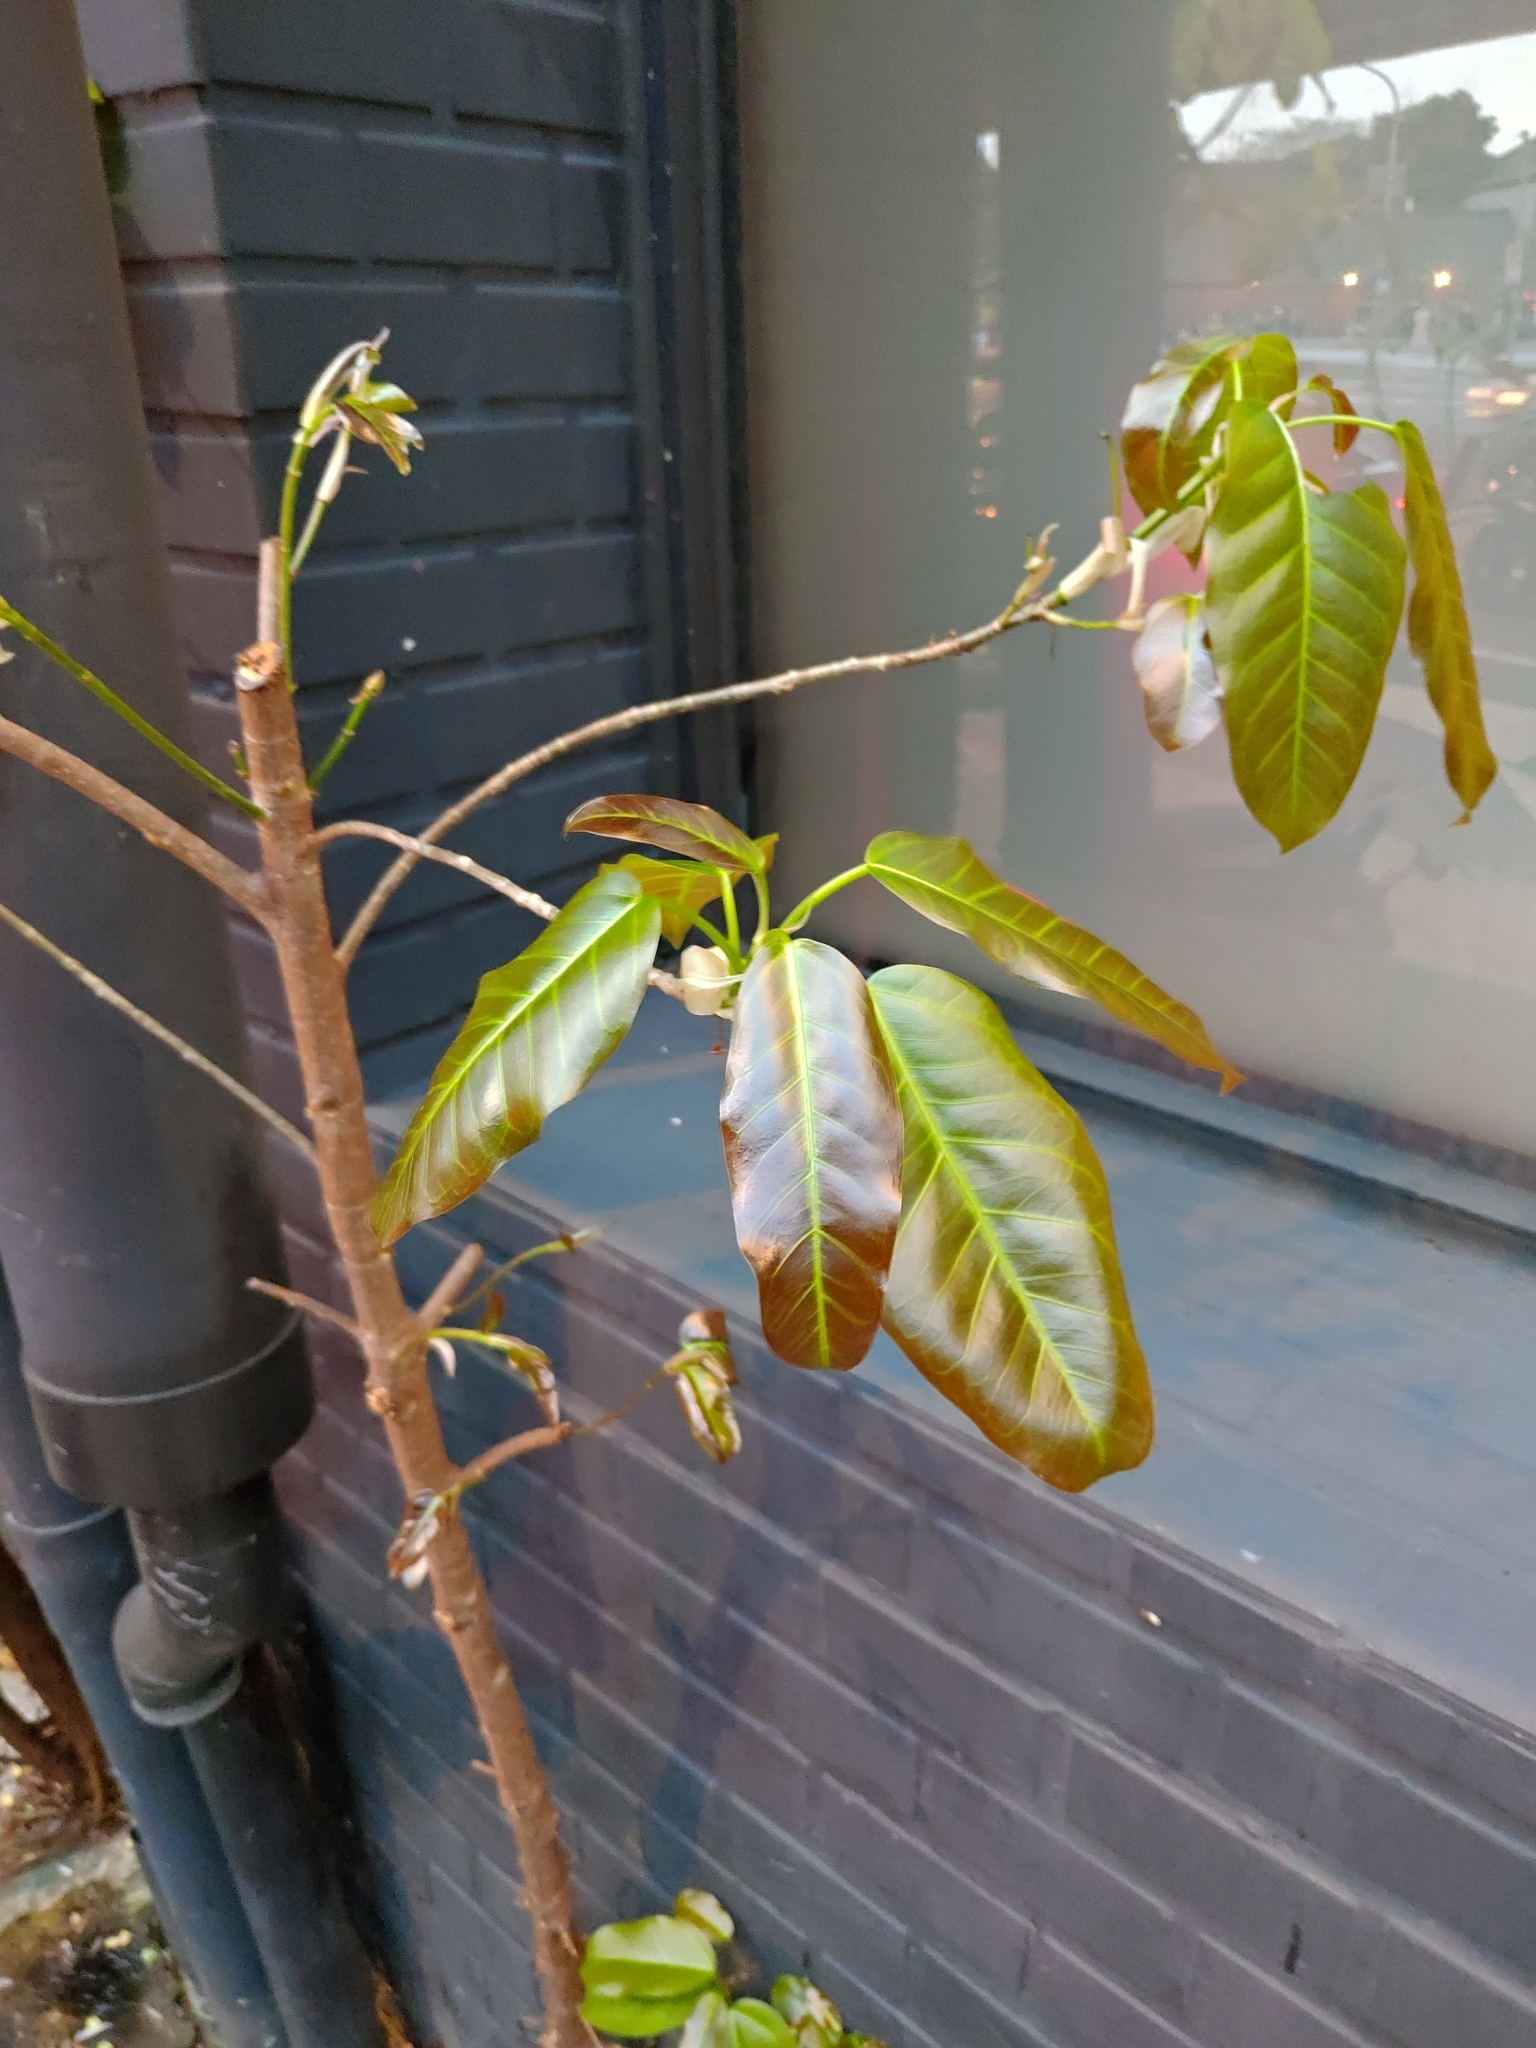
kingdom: Plantae
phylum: Tracheophyta
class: Magnoliopsida
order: Rosales
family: Moraceae
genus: Ficus
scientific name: Ficus subpisocarpa
